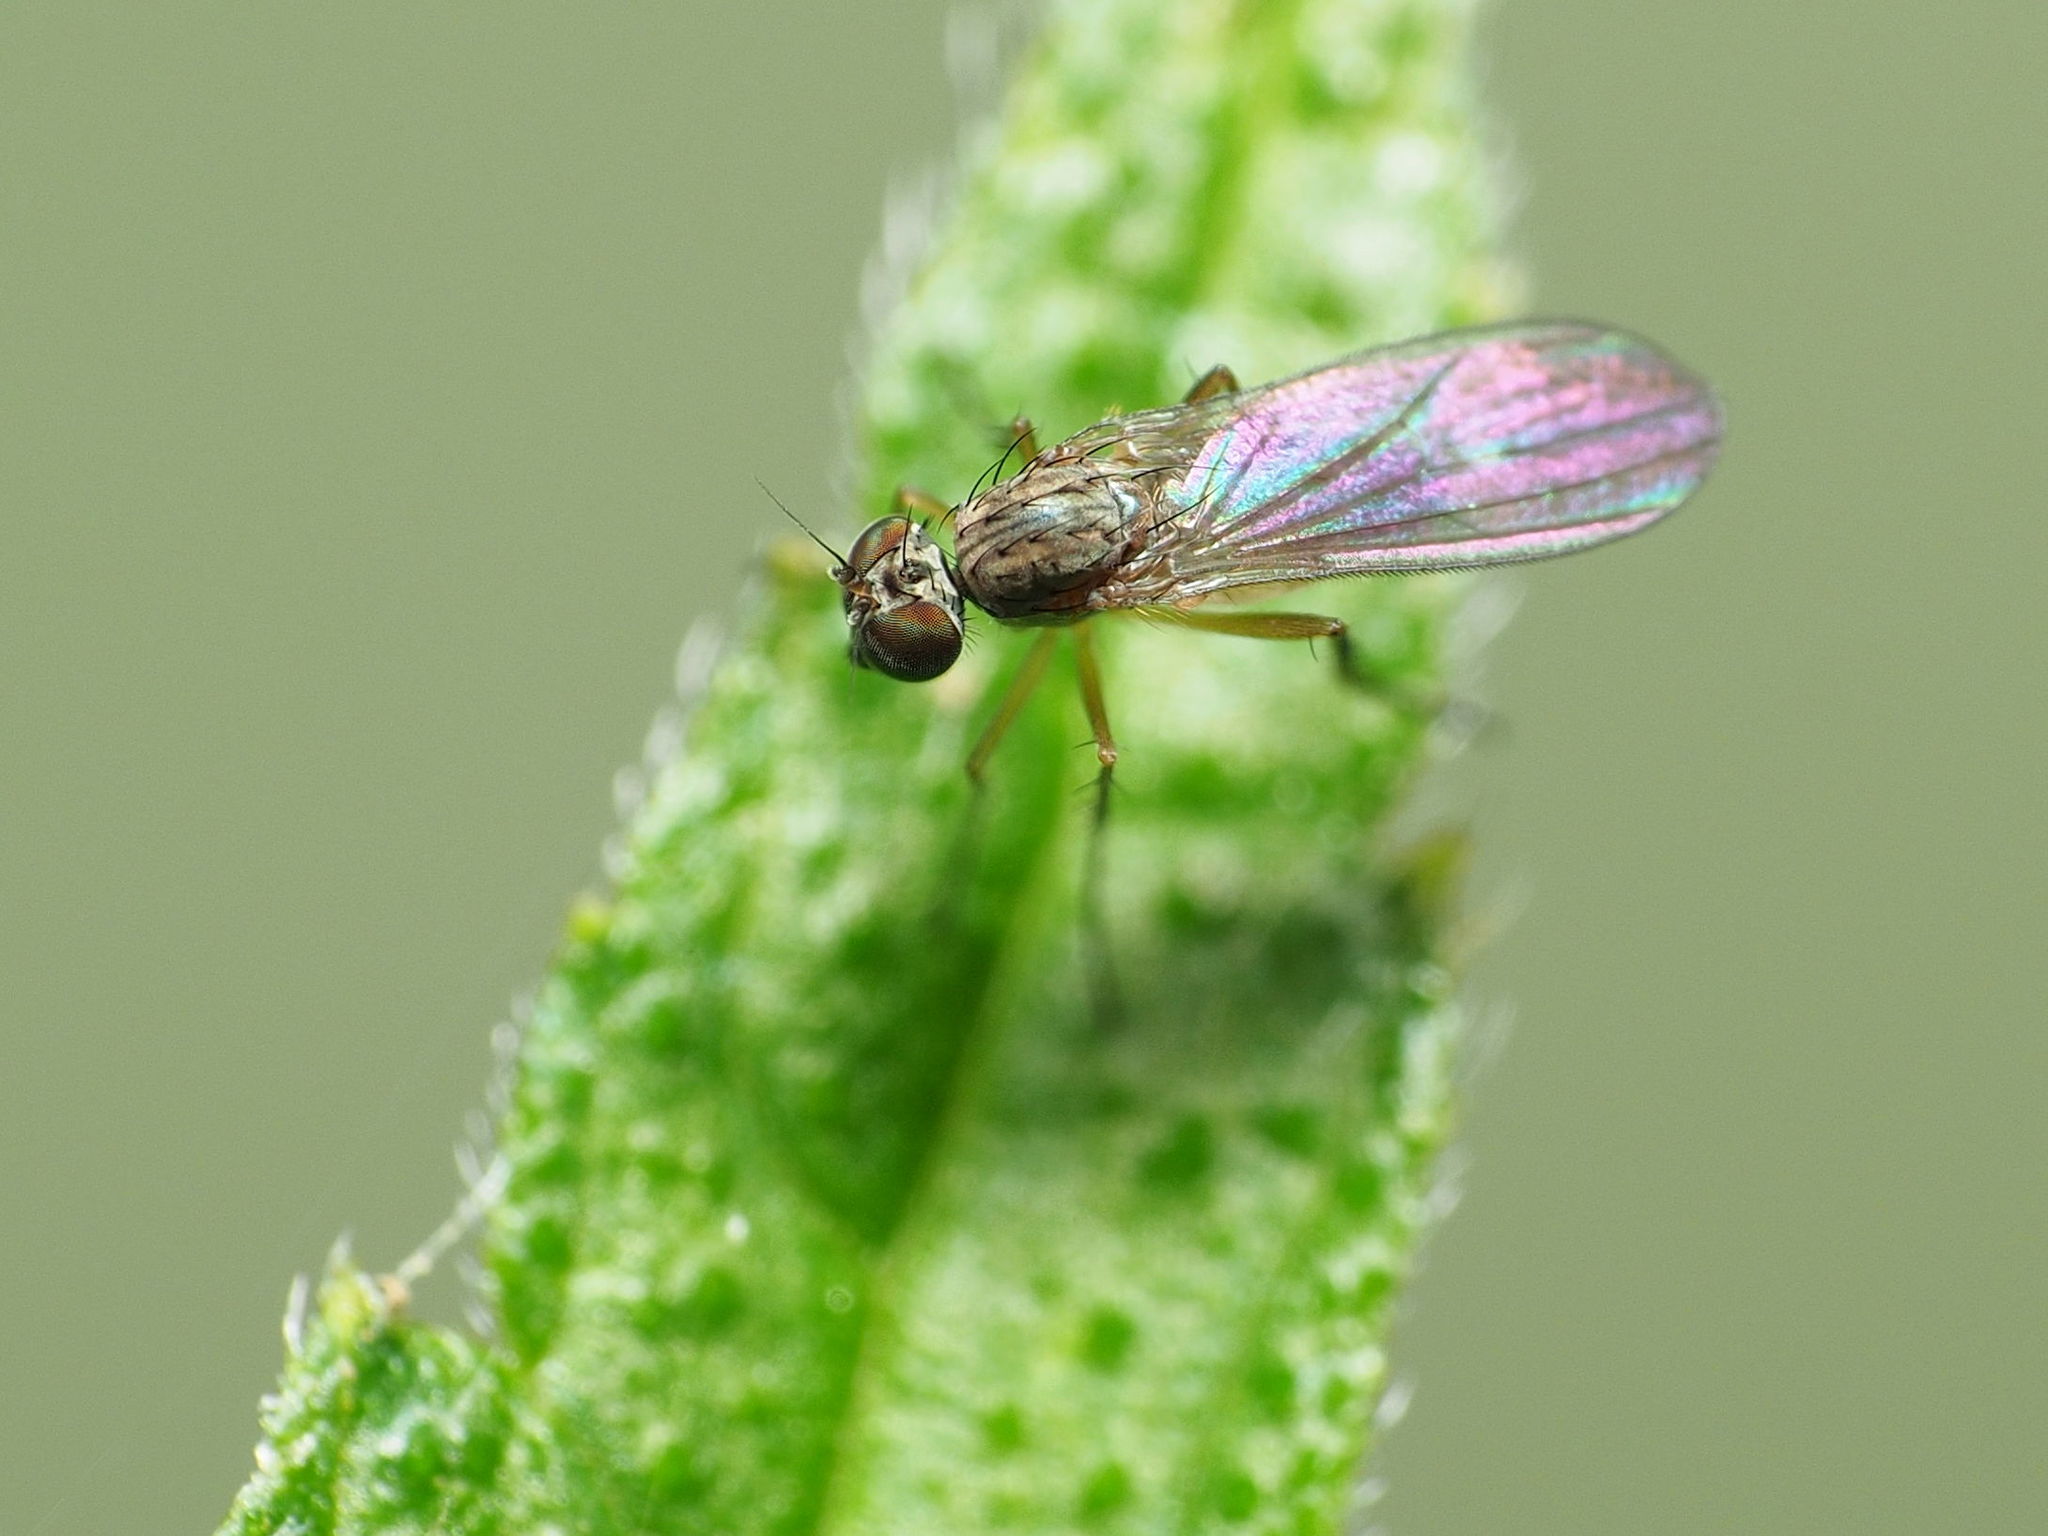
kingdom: Animalia
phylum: Arthropoda
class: Insecta
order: Diptera
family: Dolichopodidae
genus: Sympycnus
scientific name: Sympycnus lineatus
